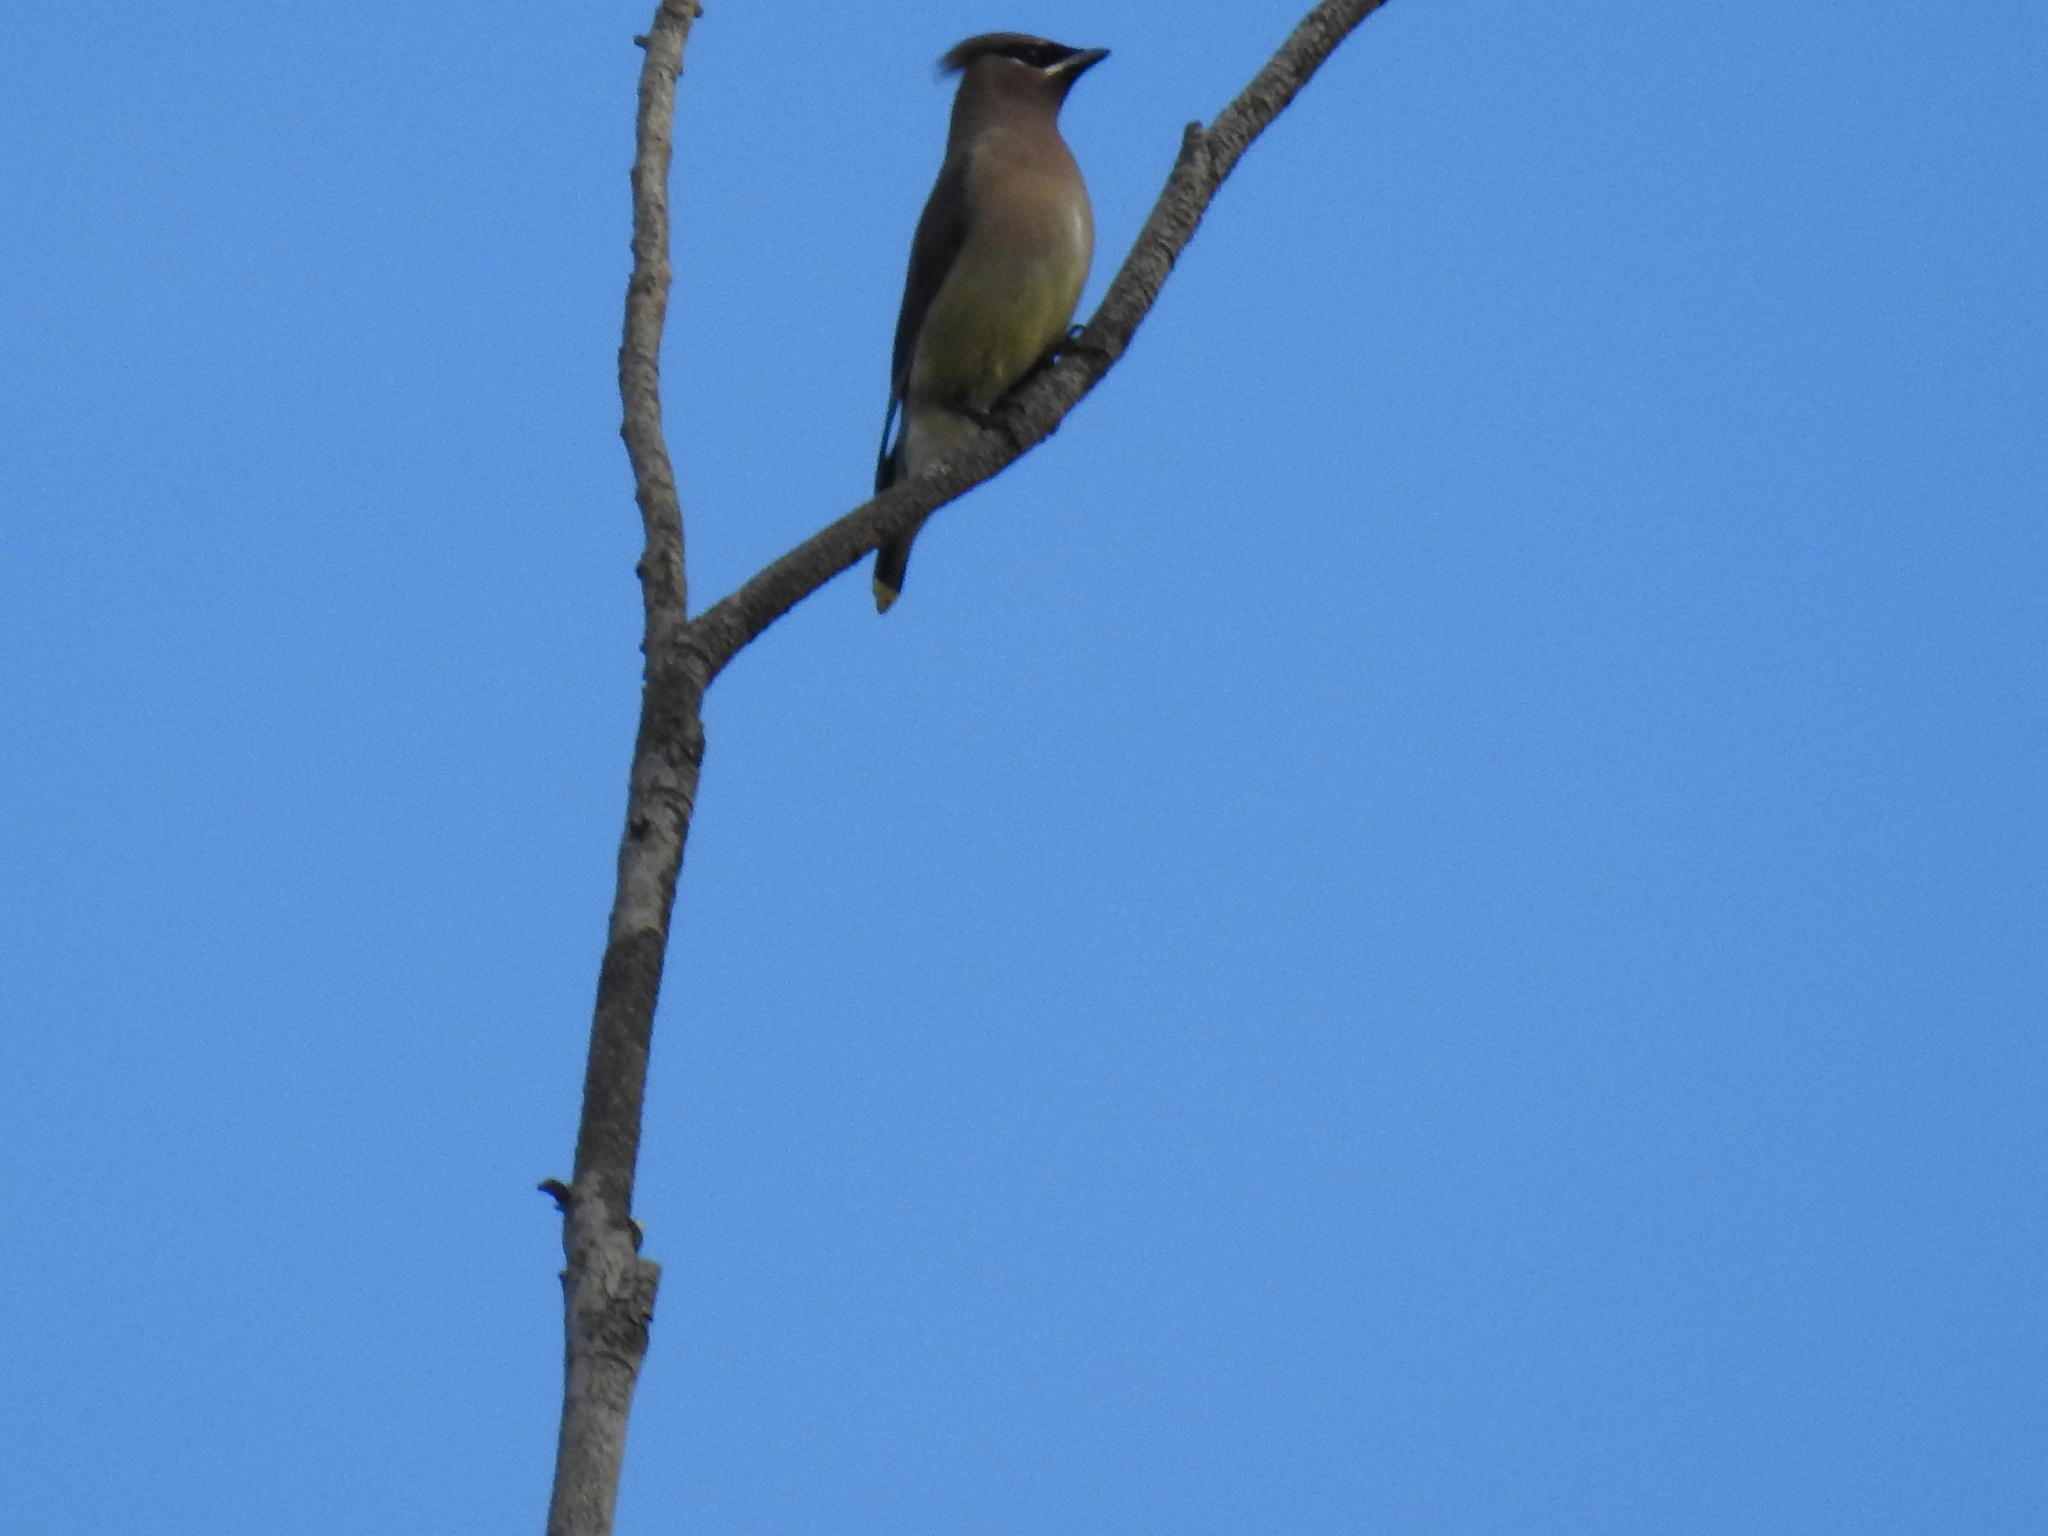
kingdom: Animalia
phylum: Chordata
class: Aves
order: Passeriformes
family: Bombycillidae
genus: Bombycilla
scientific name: Bombycilla cedrorum
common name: Cedar waxwing
